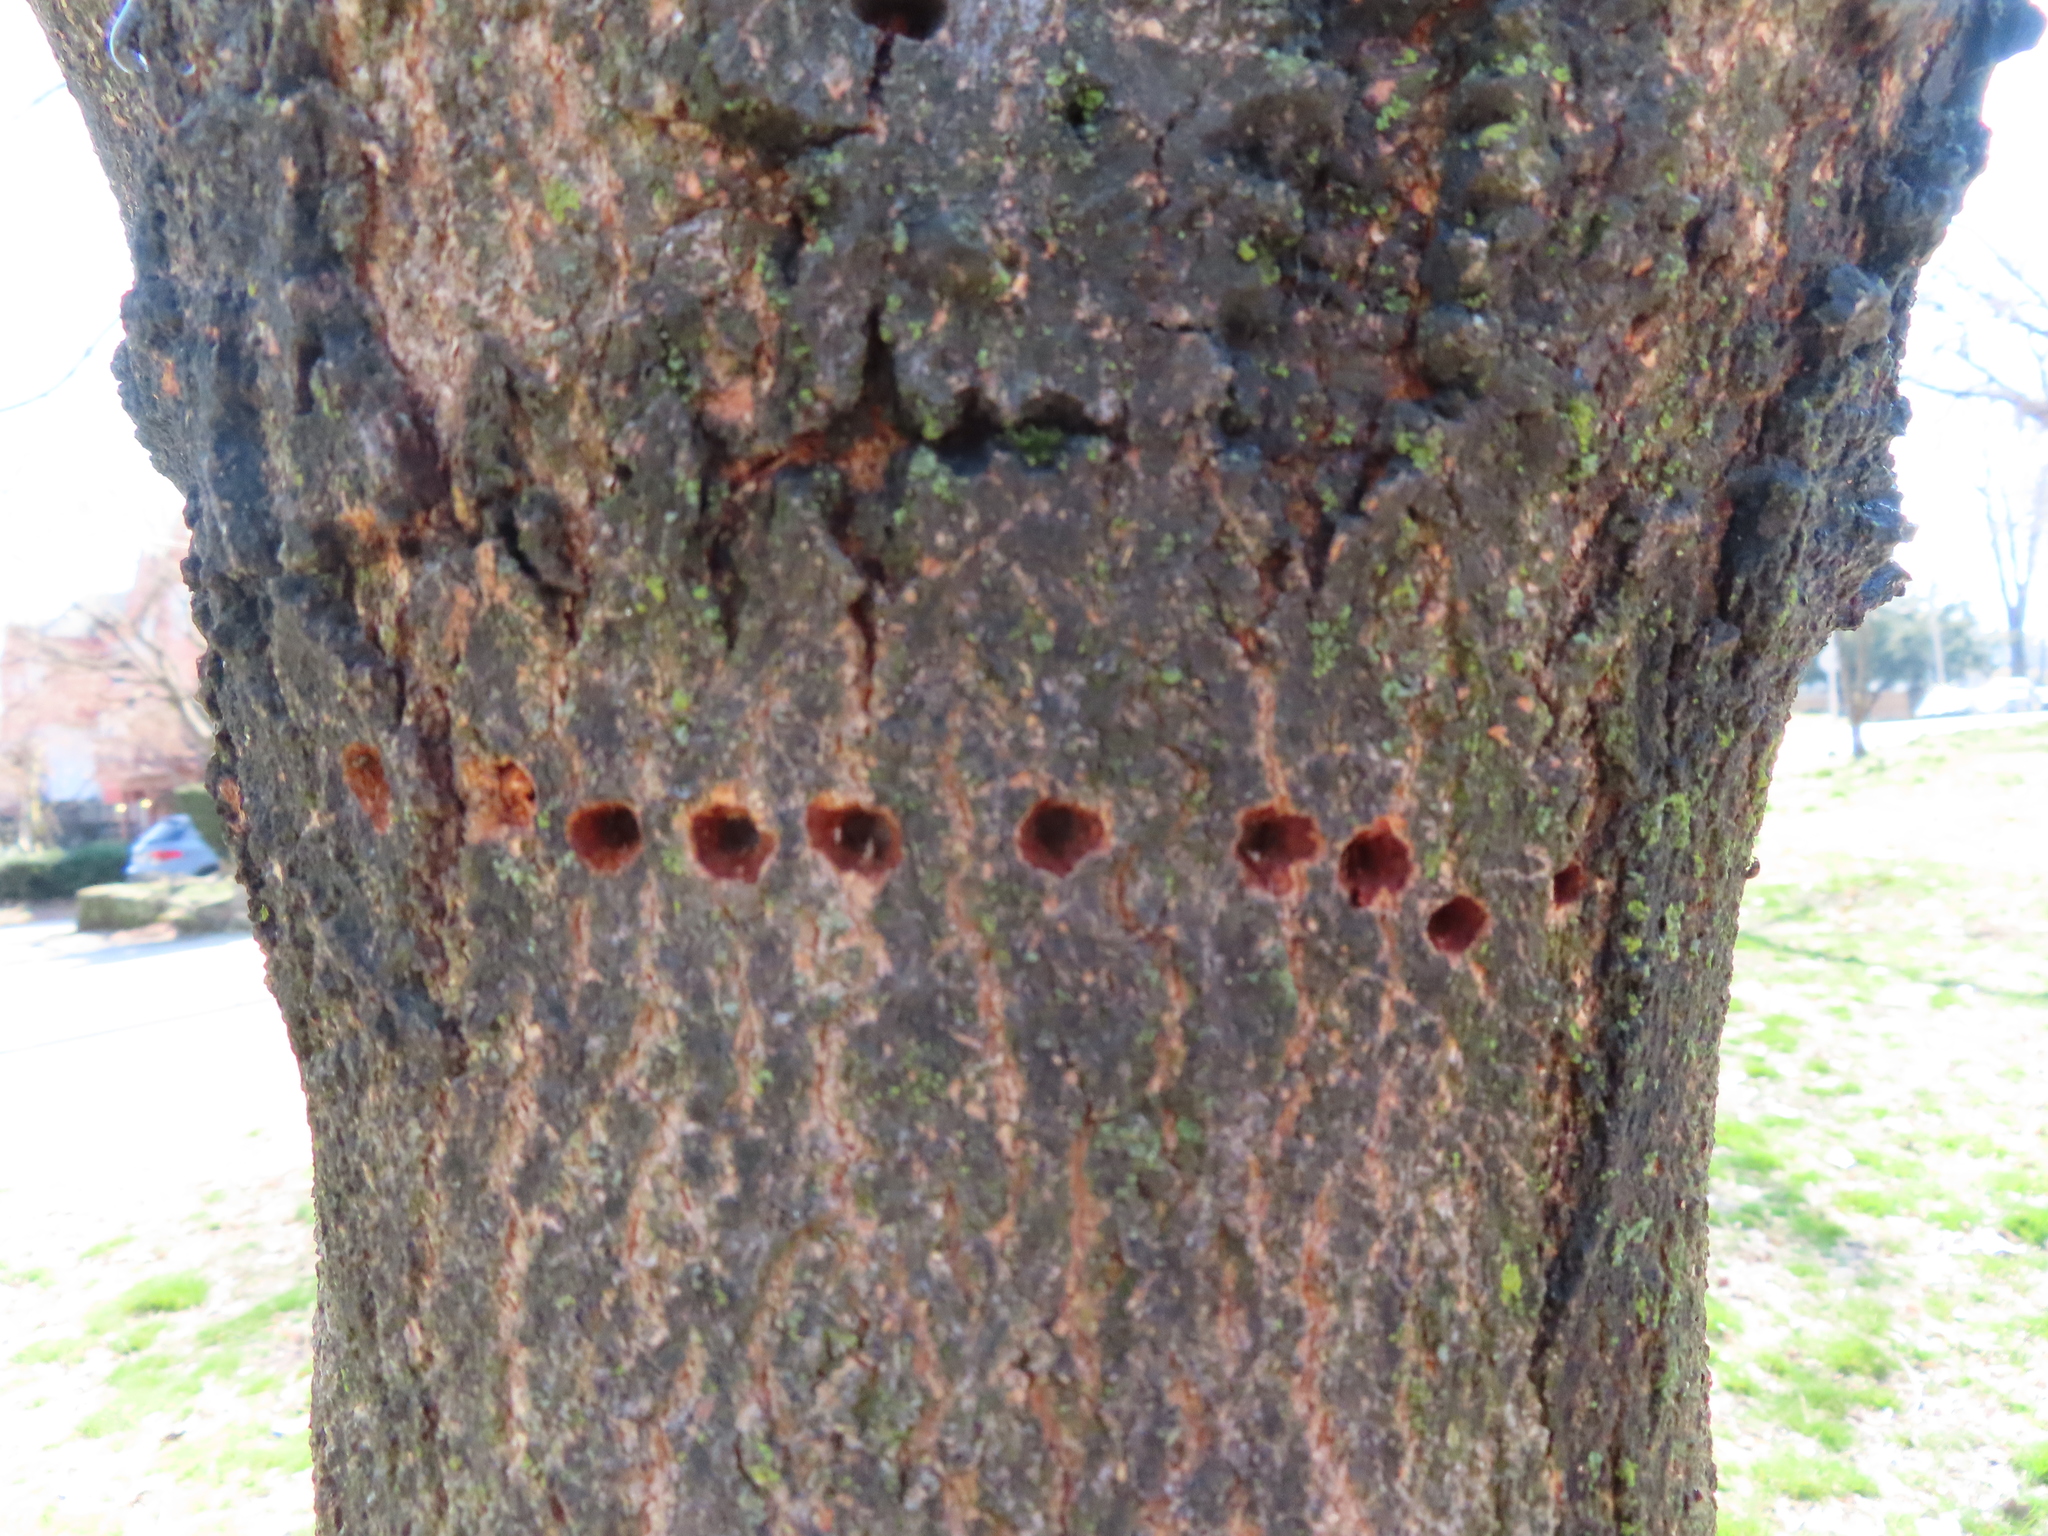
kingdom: Animalia
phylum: Chordata
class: Aves
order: Piciformes
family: Picidae
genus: Sphyrapicus
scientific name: Sphyrapicus varius
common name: Yellow-bellied sapsucker
